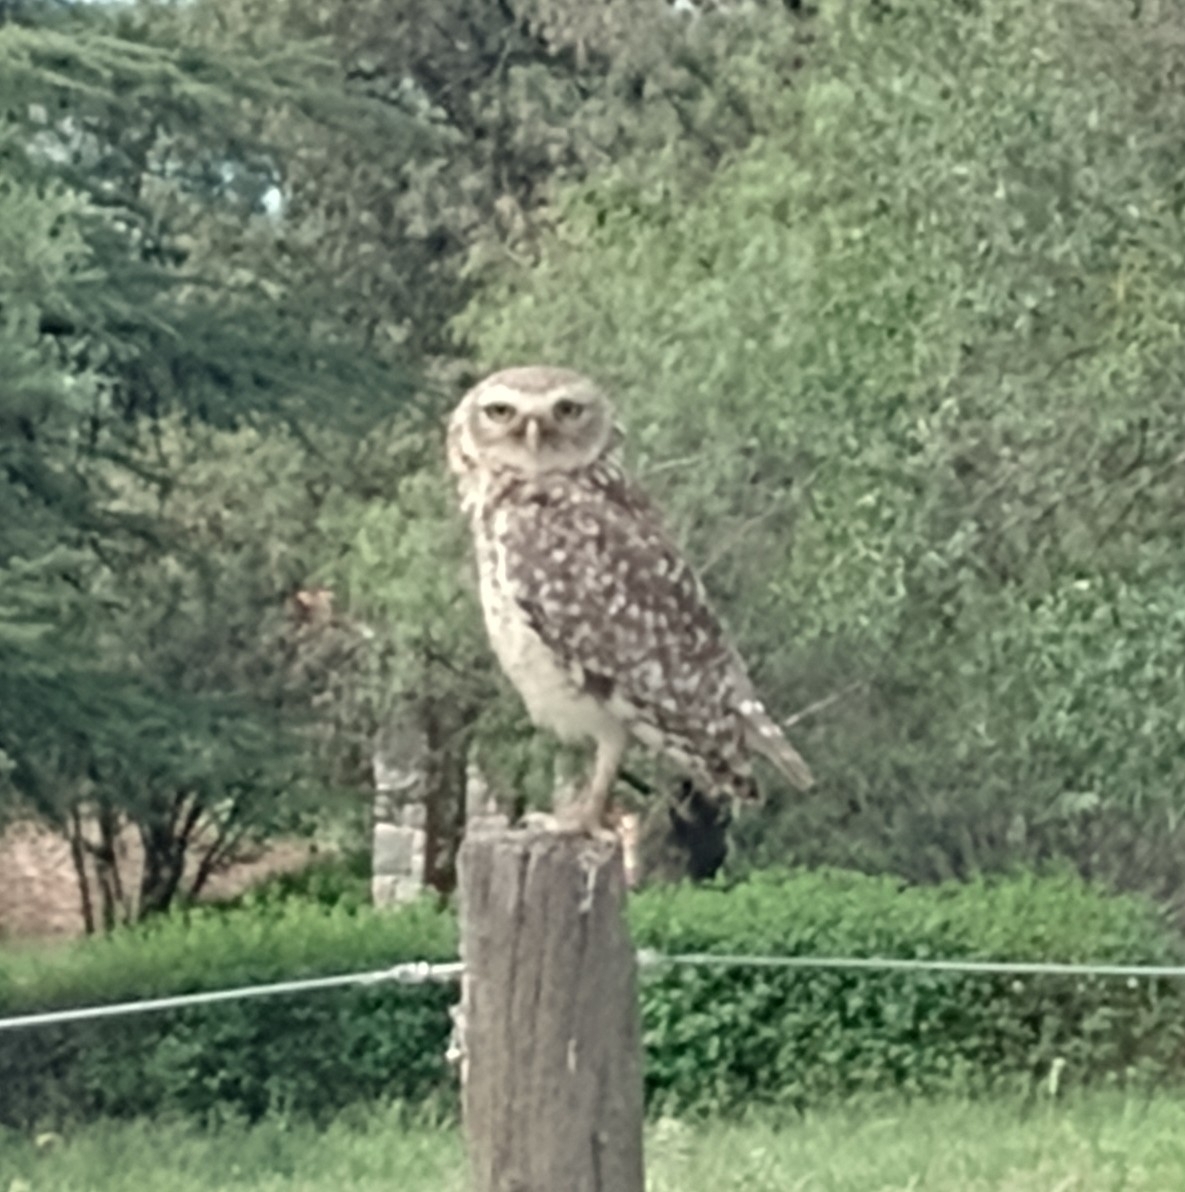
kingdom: Animalia
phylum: Chordata
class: Aves
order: Strigiformes
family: Strigidae
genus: Athene
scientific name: Athene cunicularia
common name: Burrowing owl
